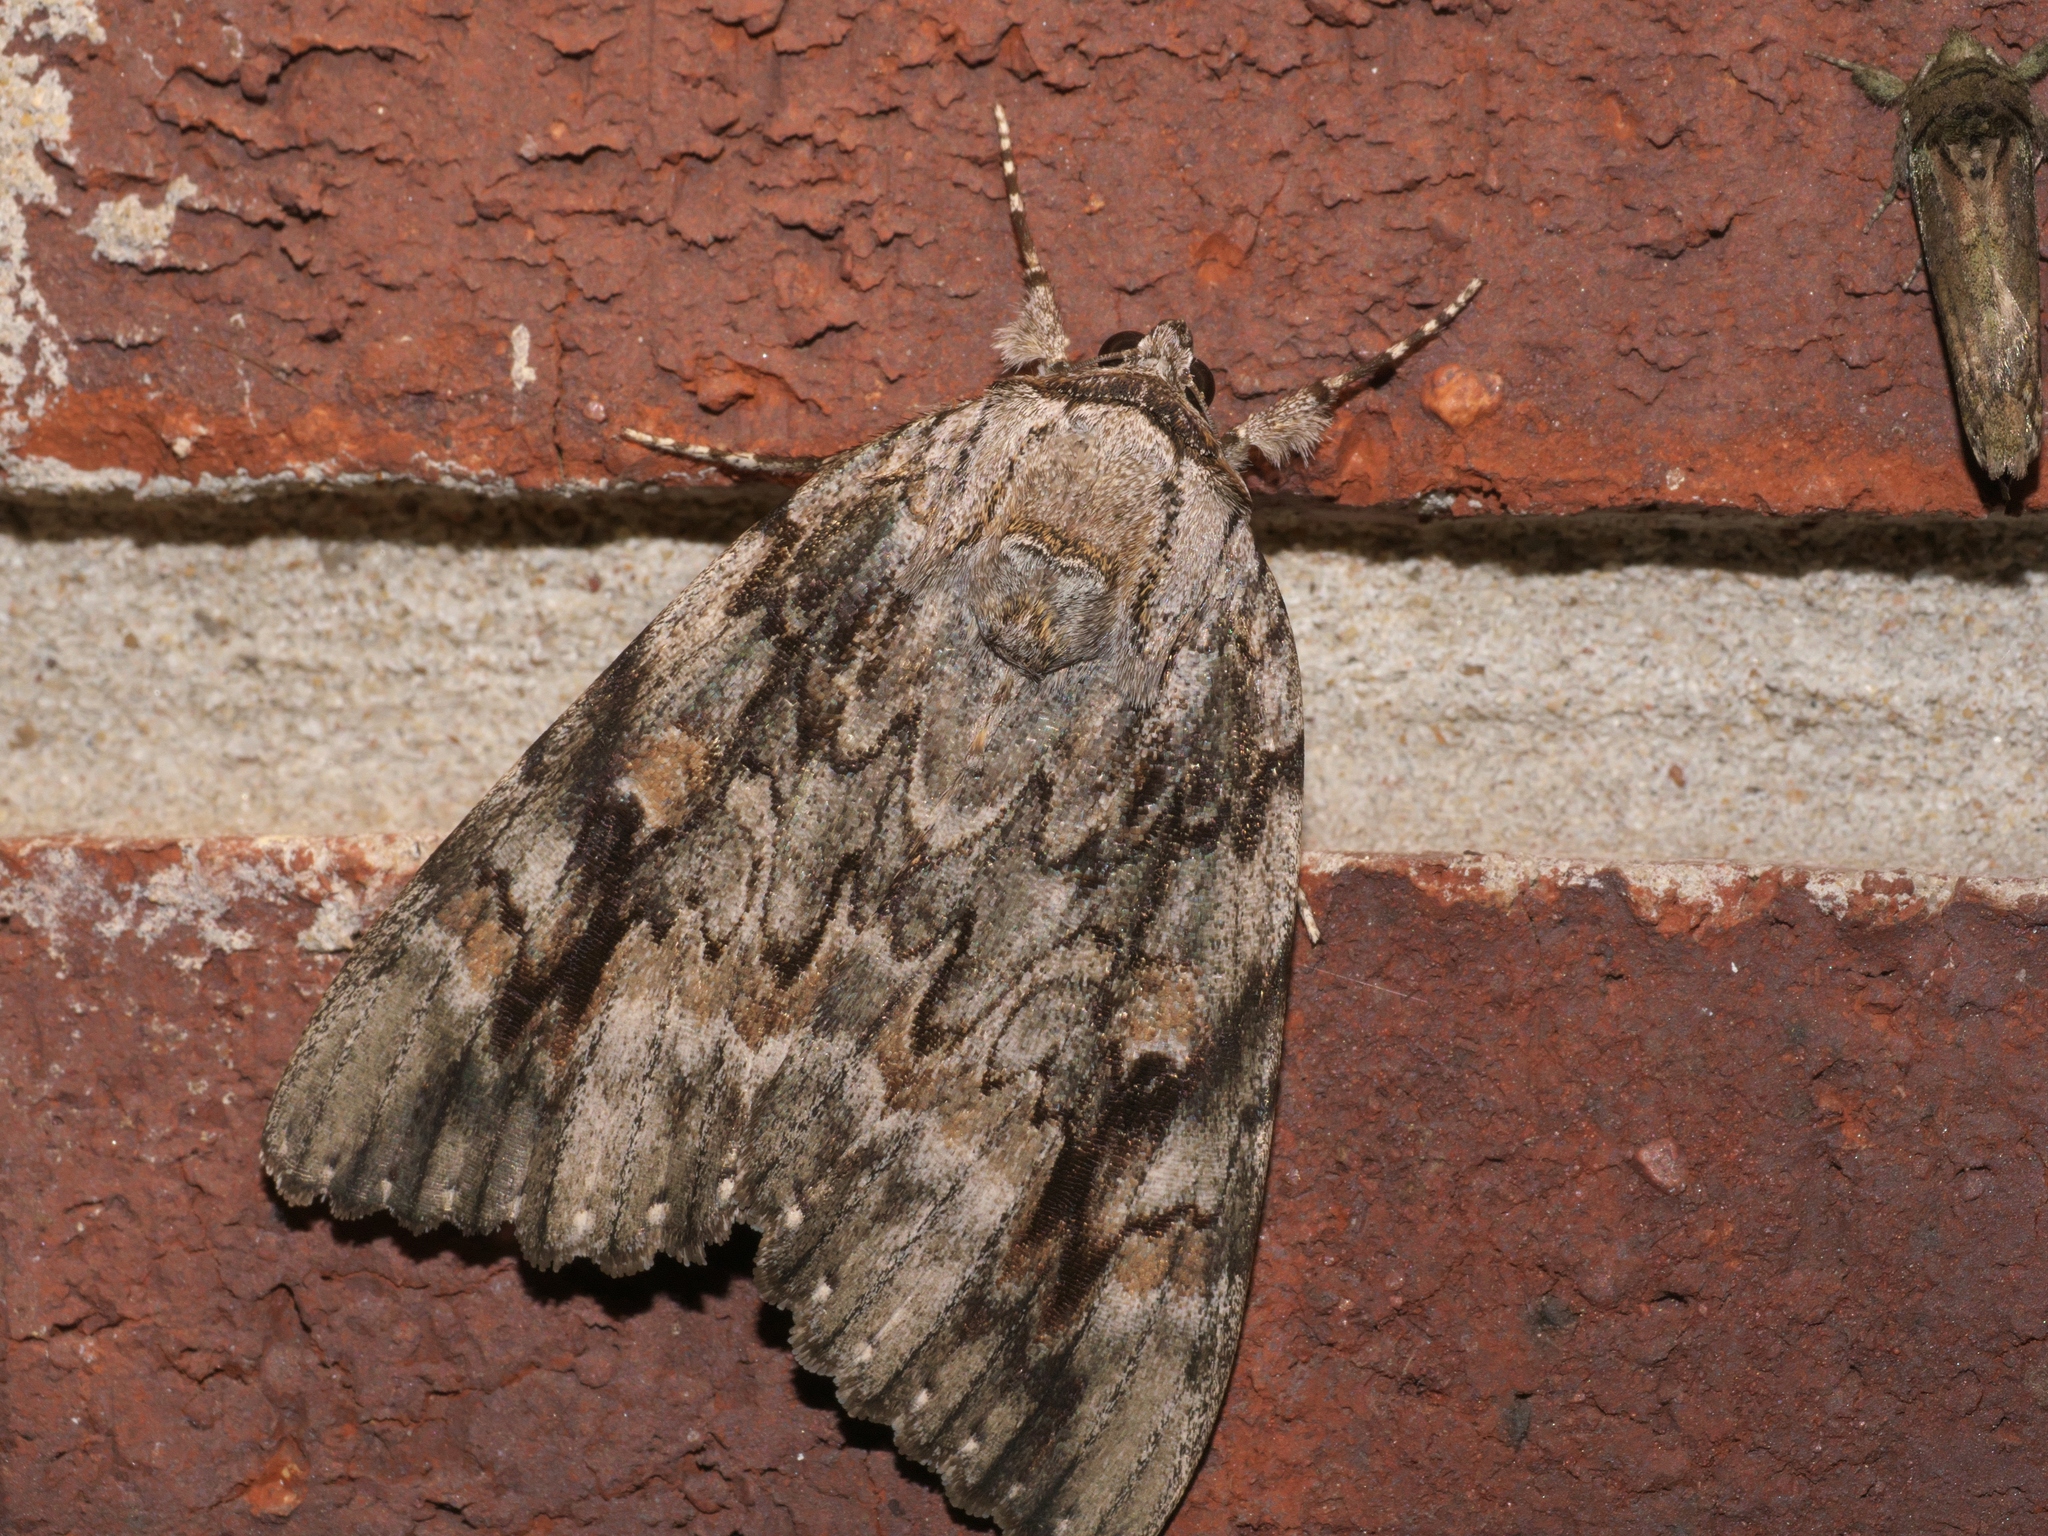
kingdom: Animalia
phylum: Arthropoda
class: Insecta
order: Lepidoptera
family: Erebidae
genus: Catocala
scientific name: Catocala maestosa
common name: Sad underwing
